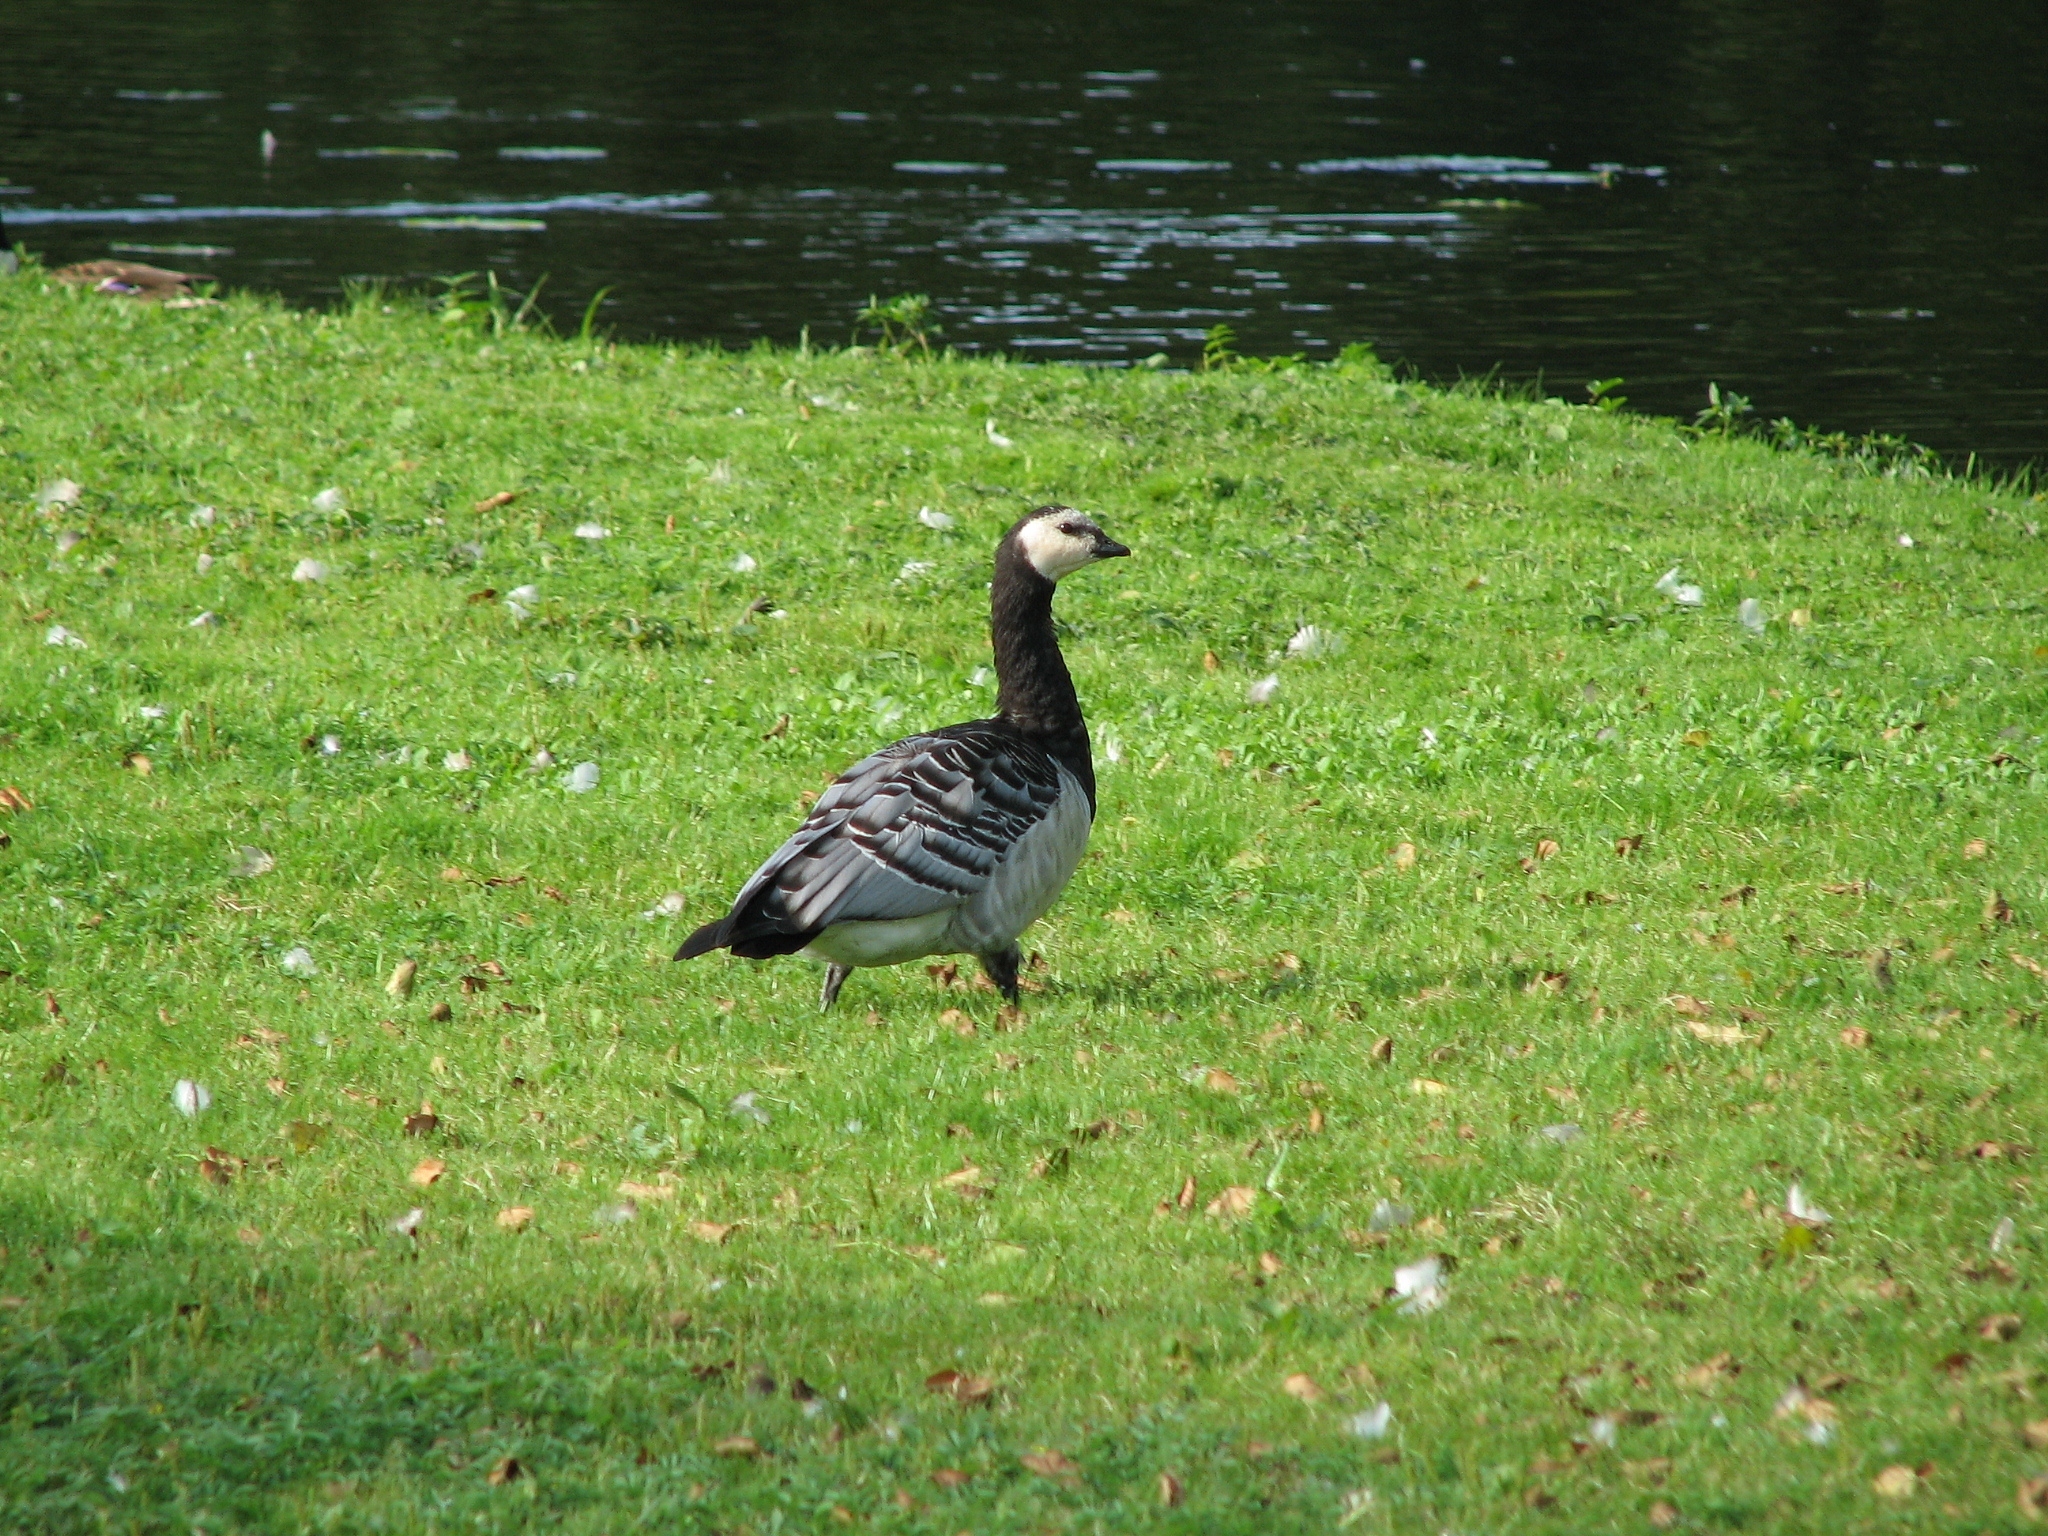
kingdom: Animalia
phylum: Chordata
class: Aves
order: Anseriformes
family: Anatidae
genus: Branta
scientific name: Branta leucopsis
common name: Barnacle goose
